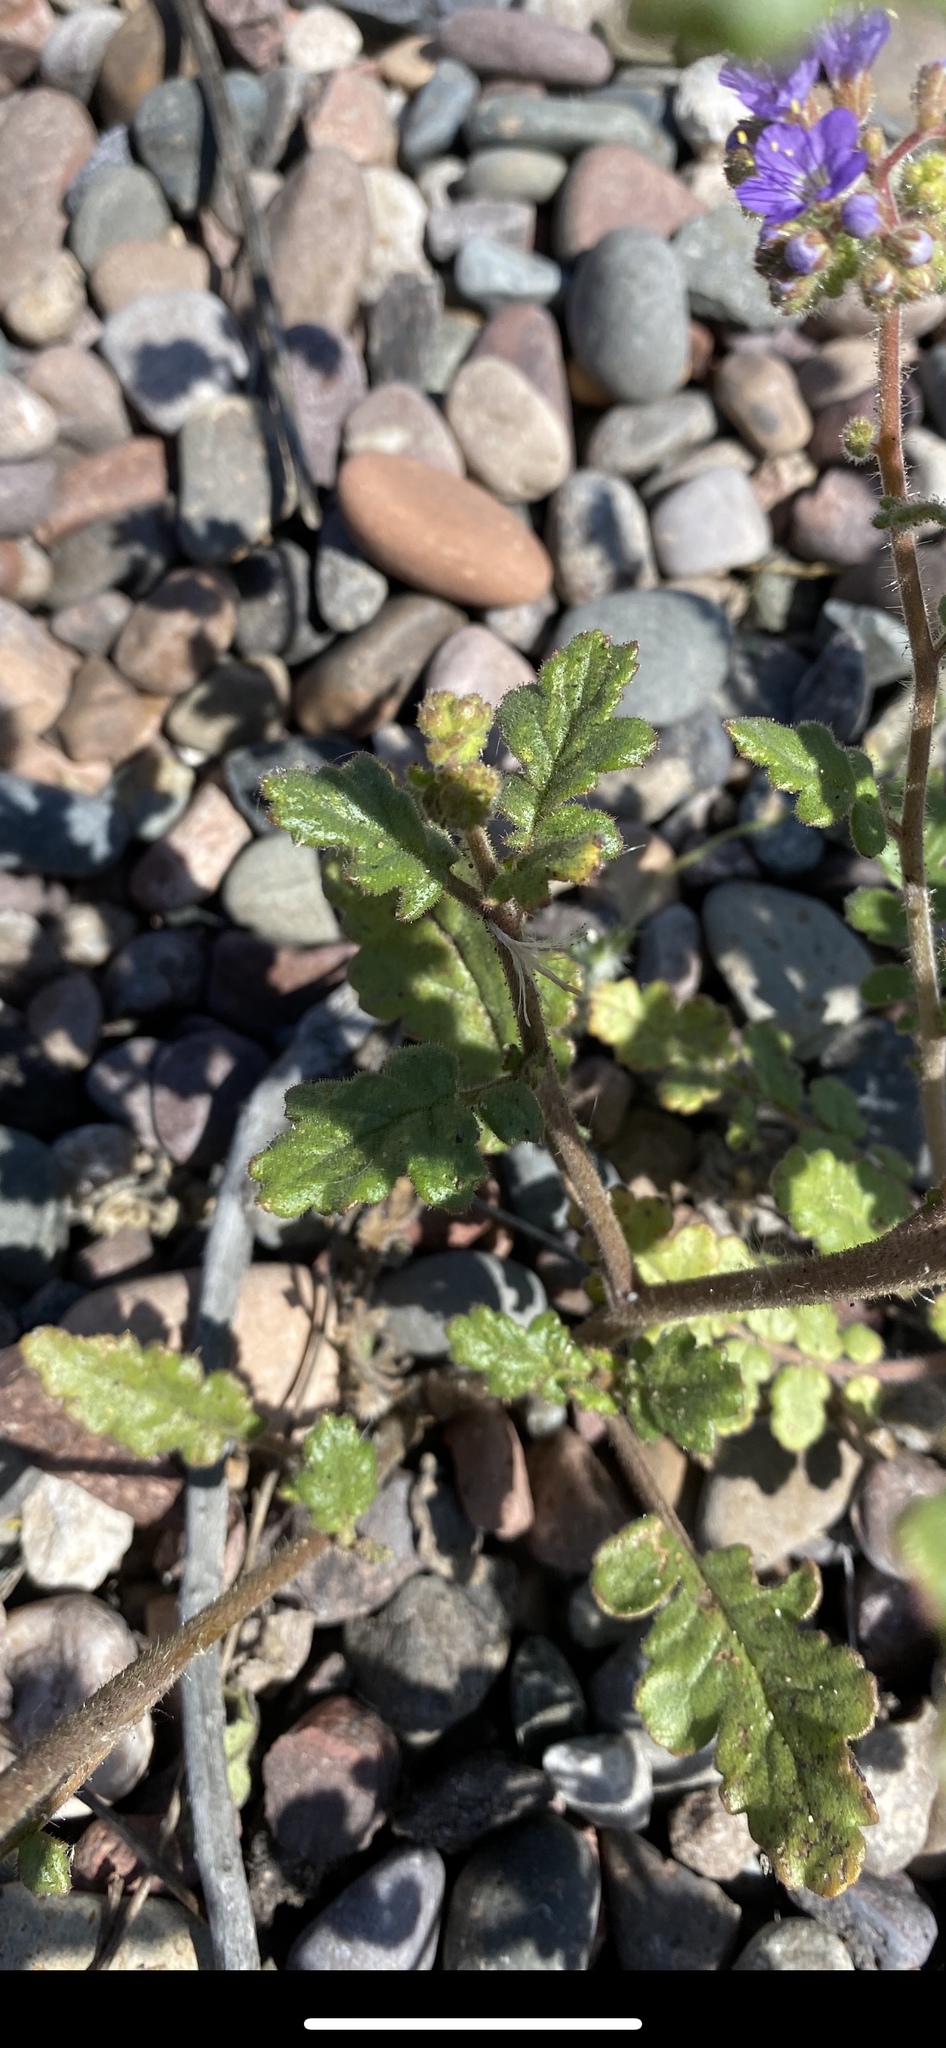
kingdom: Plantae
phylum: Tracheophyta
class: Magnoliopsida
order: Boraginales
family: Hydrophyllaceae
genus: Phacelia
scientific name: Phacelia crenulata
